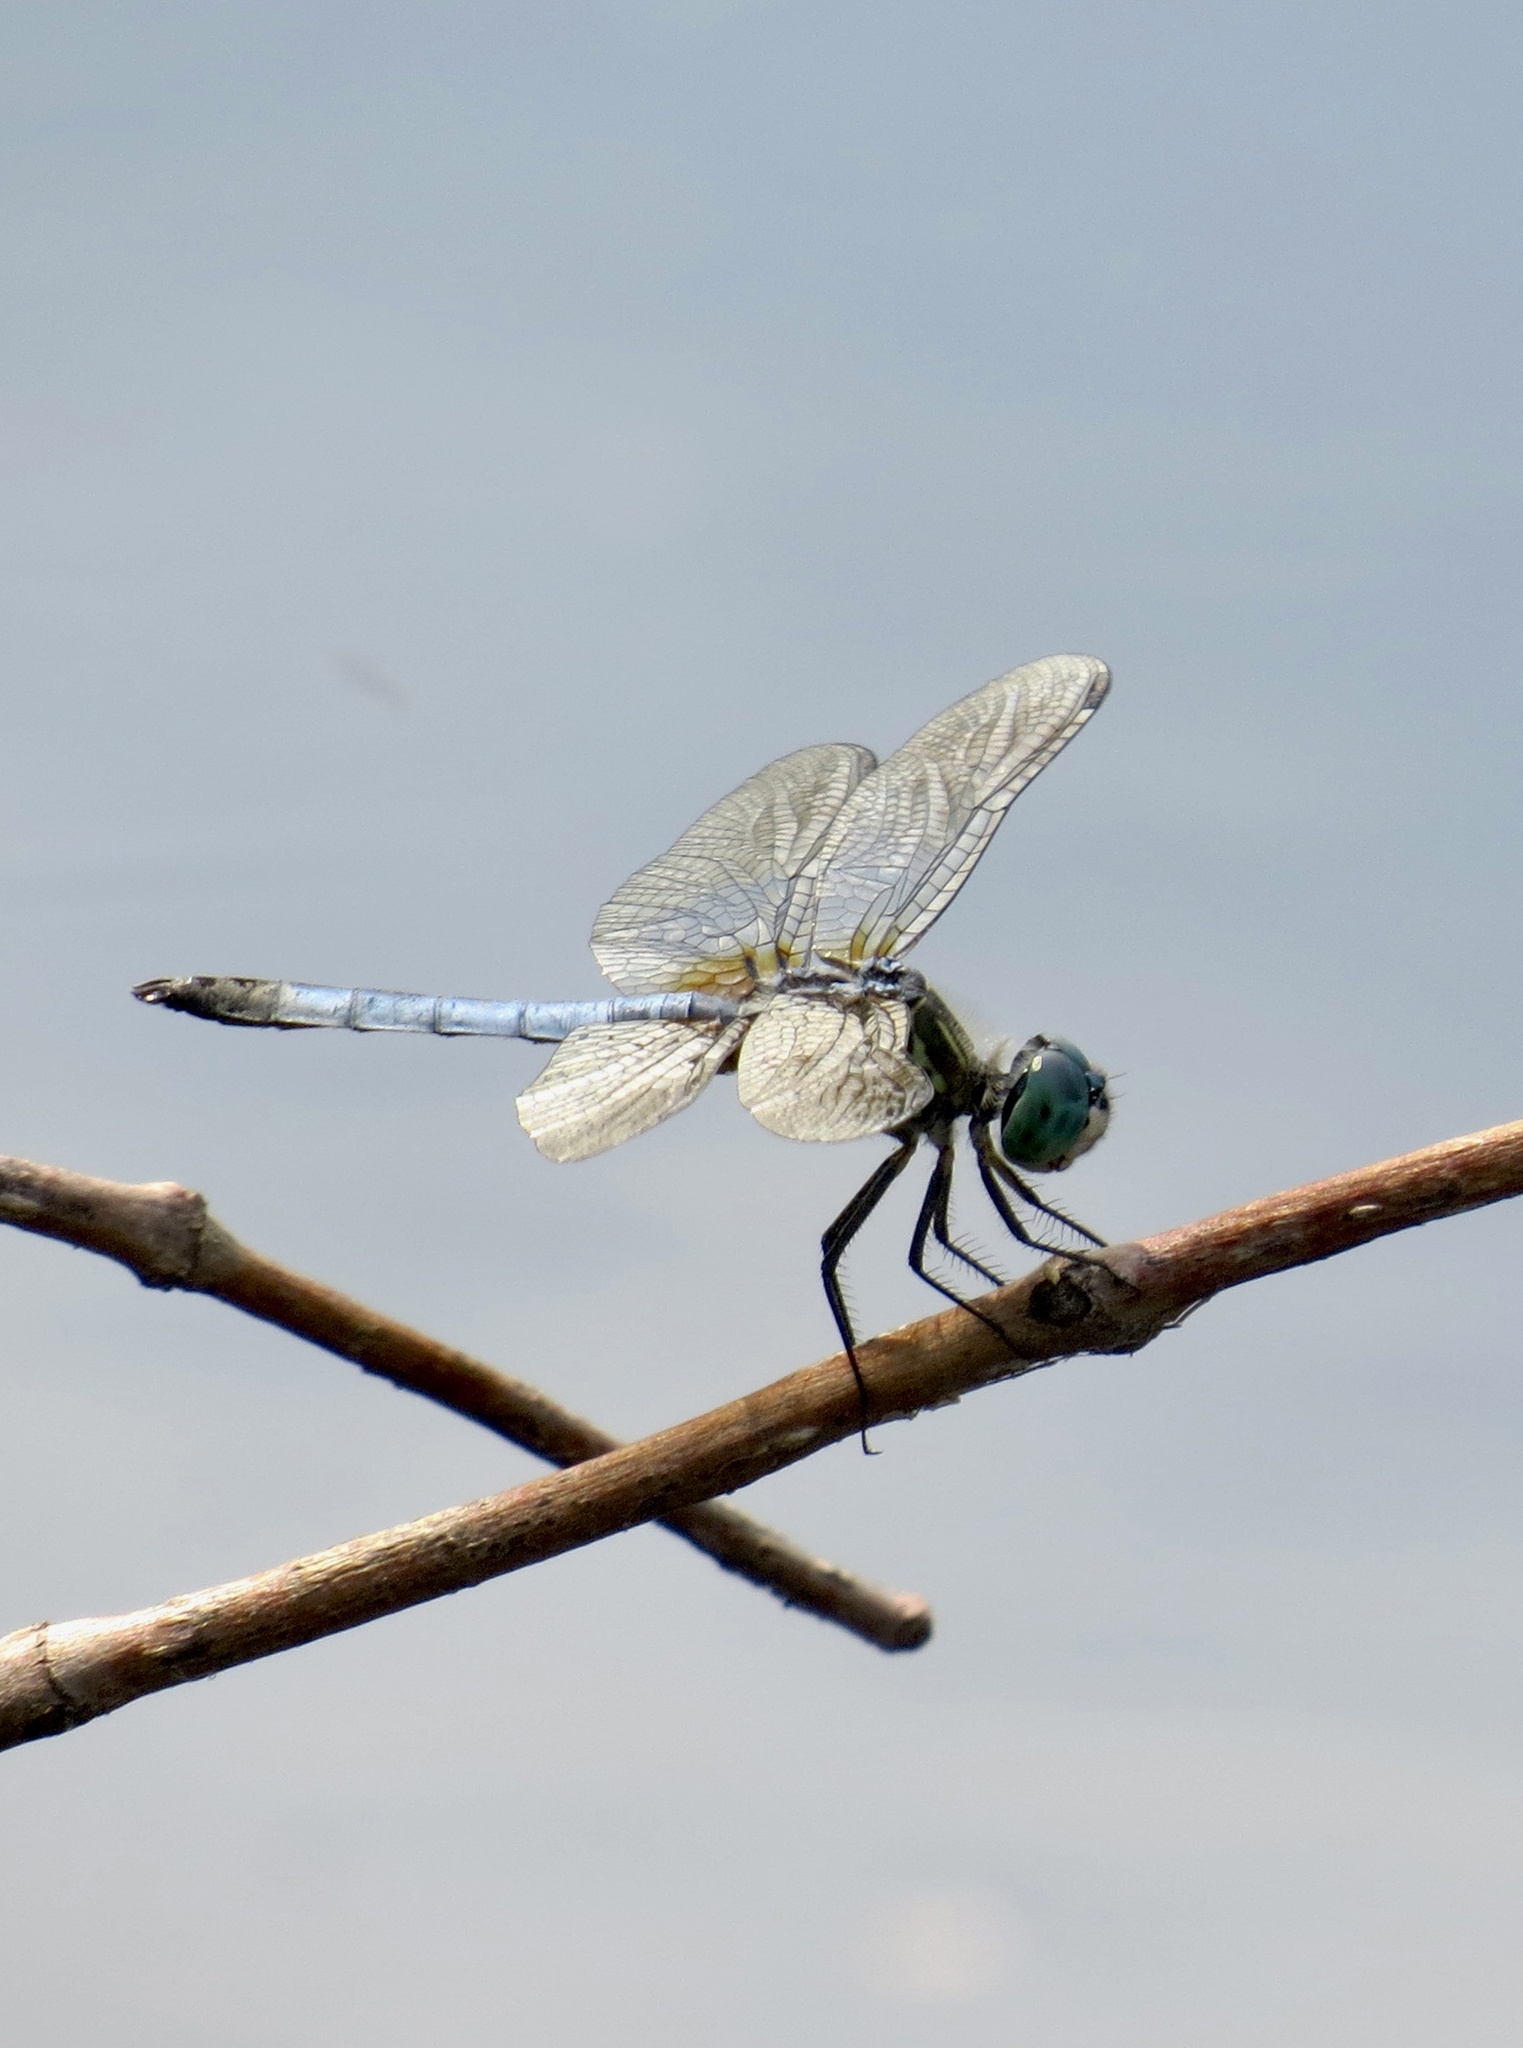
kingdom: Animalia
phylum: Arthropoda
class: Insecta
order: Odonata
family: Libellulidae
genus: Pachydiplax
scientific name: Pachydiplax longipennis
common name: Blue dasher
